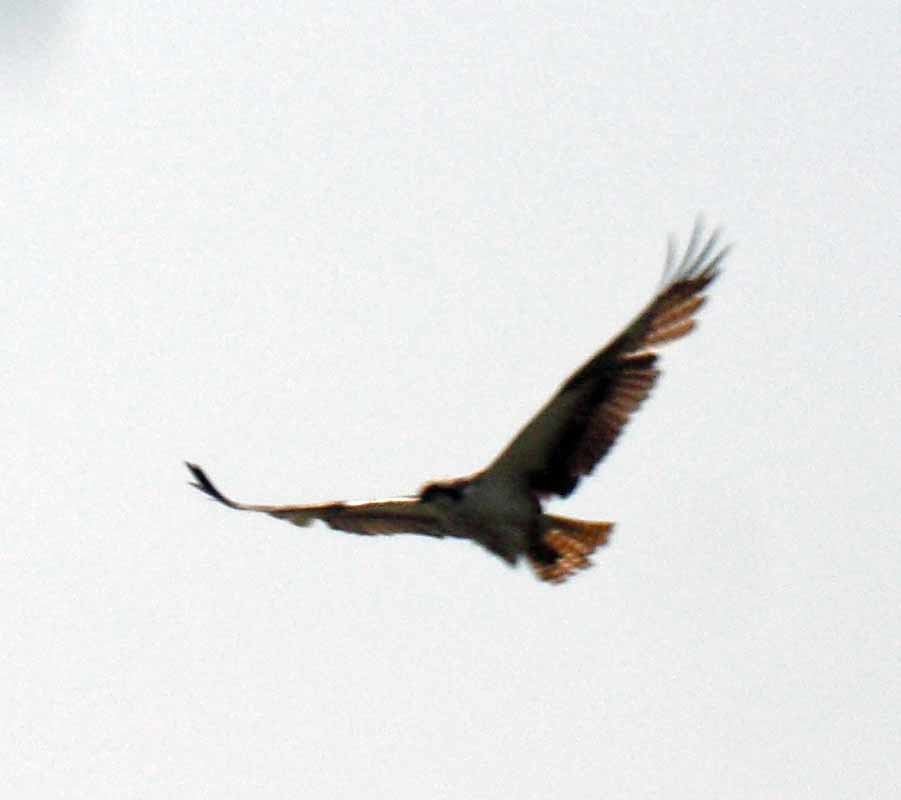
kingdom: Animalia
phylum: Chordata
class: Aves
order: Accipitriformes
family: Pandionidae
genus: Pandion
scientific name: Pandion haliaetus
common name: Osprey
